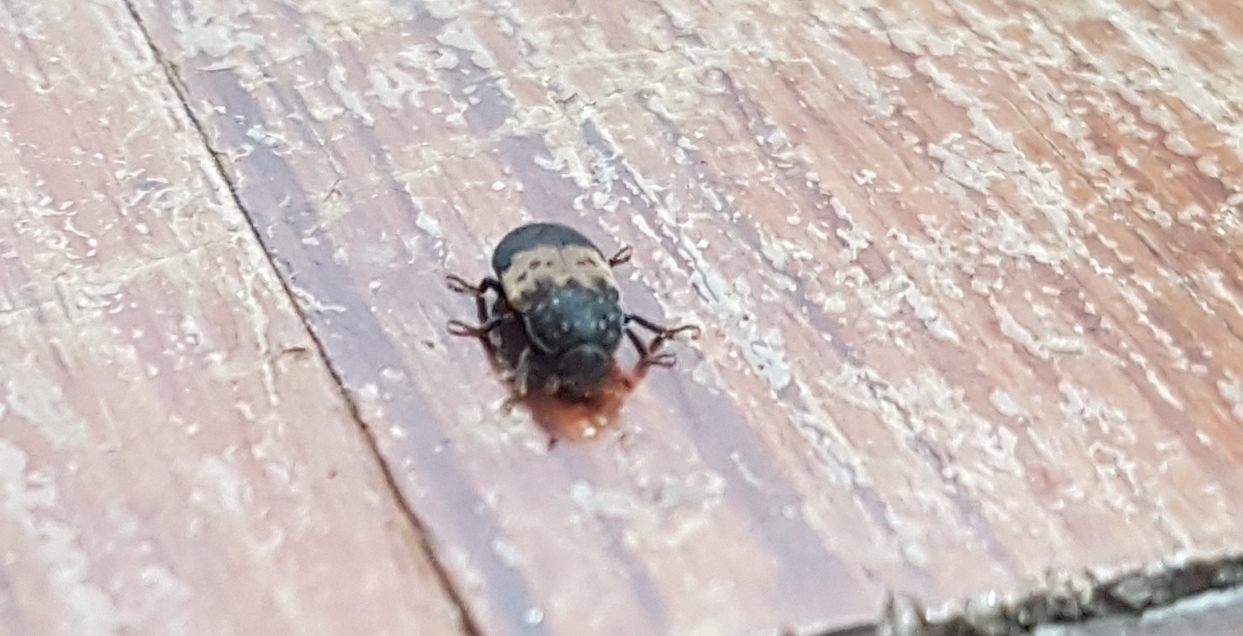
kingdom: Animalia
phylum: Arthropoda
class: Insecta
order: Coleoptera
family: Dermestidae
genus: Dermestes
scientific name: Dermestes lardarius
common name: Larder beetle
